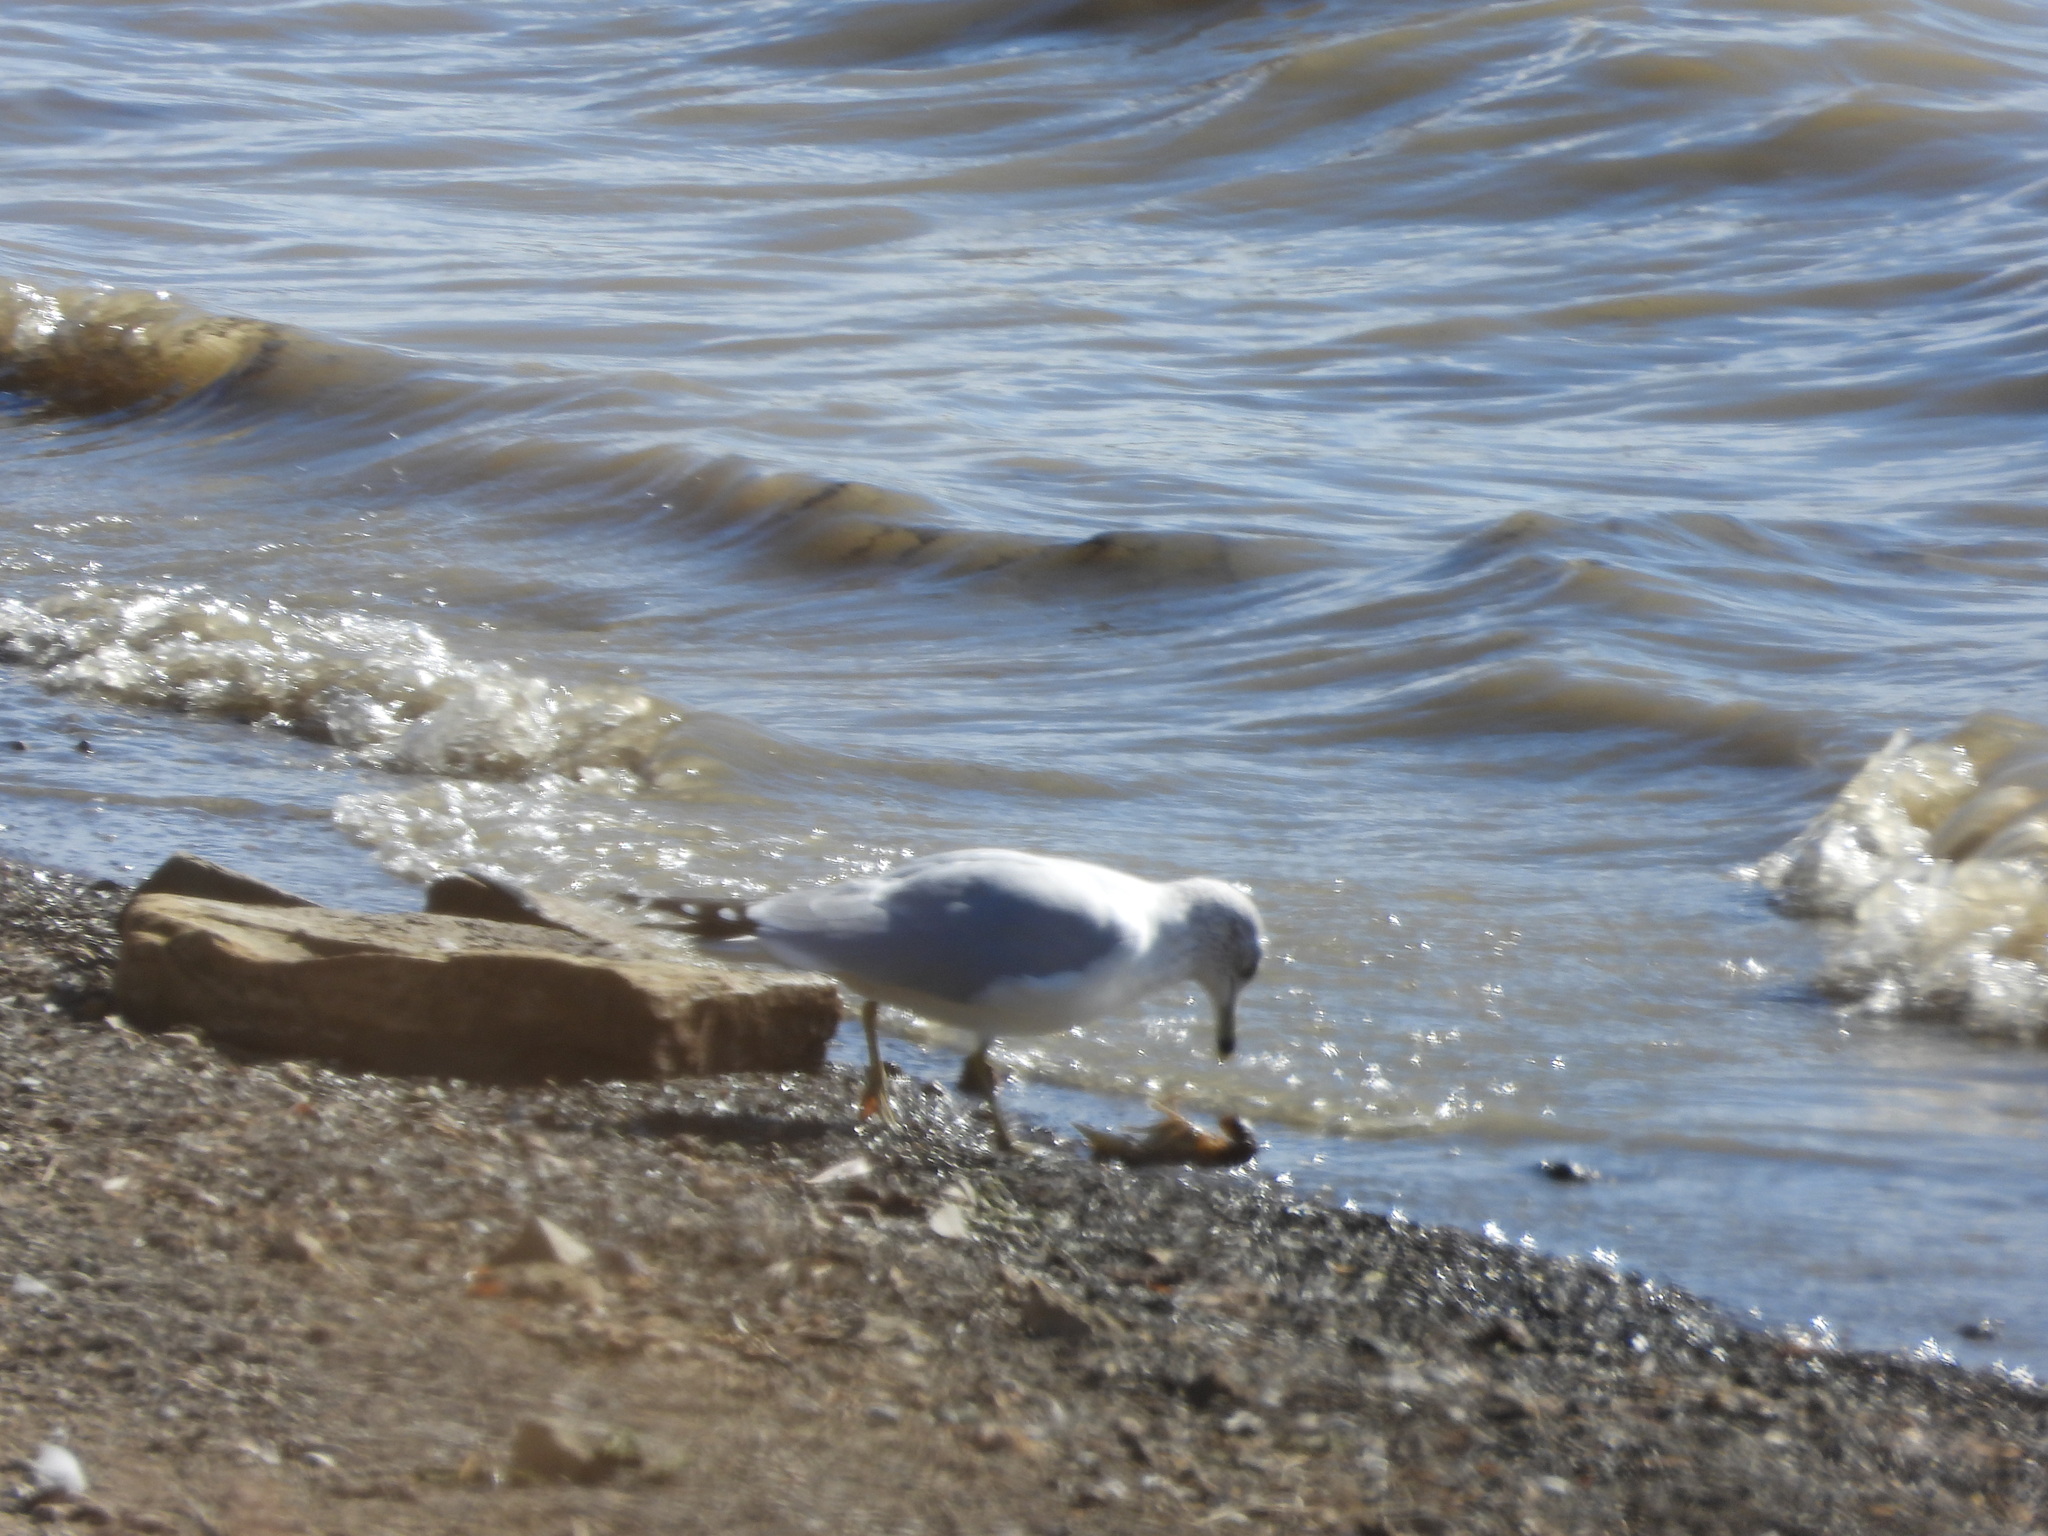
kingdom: Animalia
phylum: Chordata
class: Aves
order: Charadriiformes
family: Laridae
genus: Larus
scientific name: Larus delawarensis
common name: Ring-billed gull
